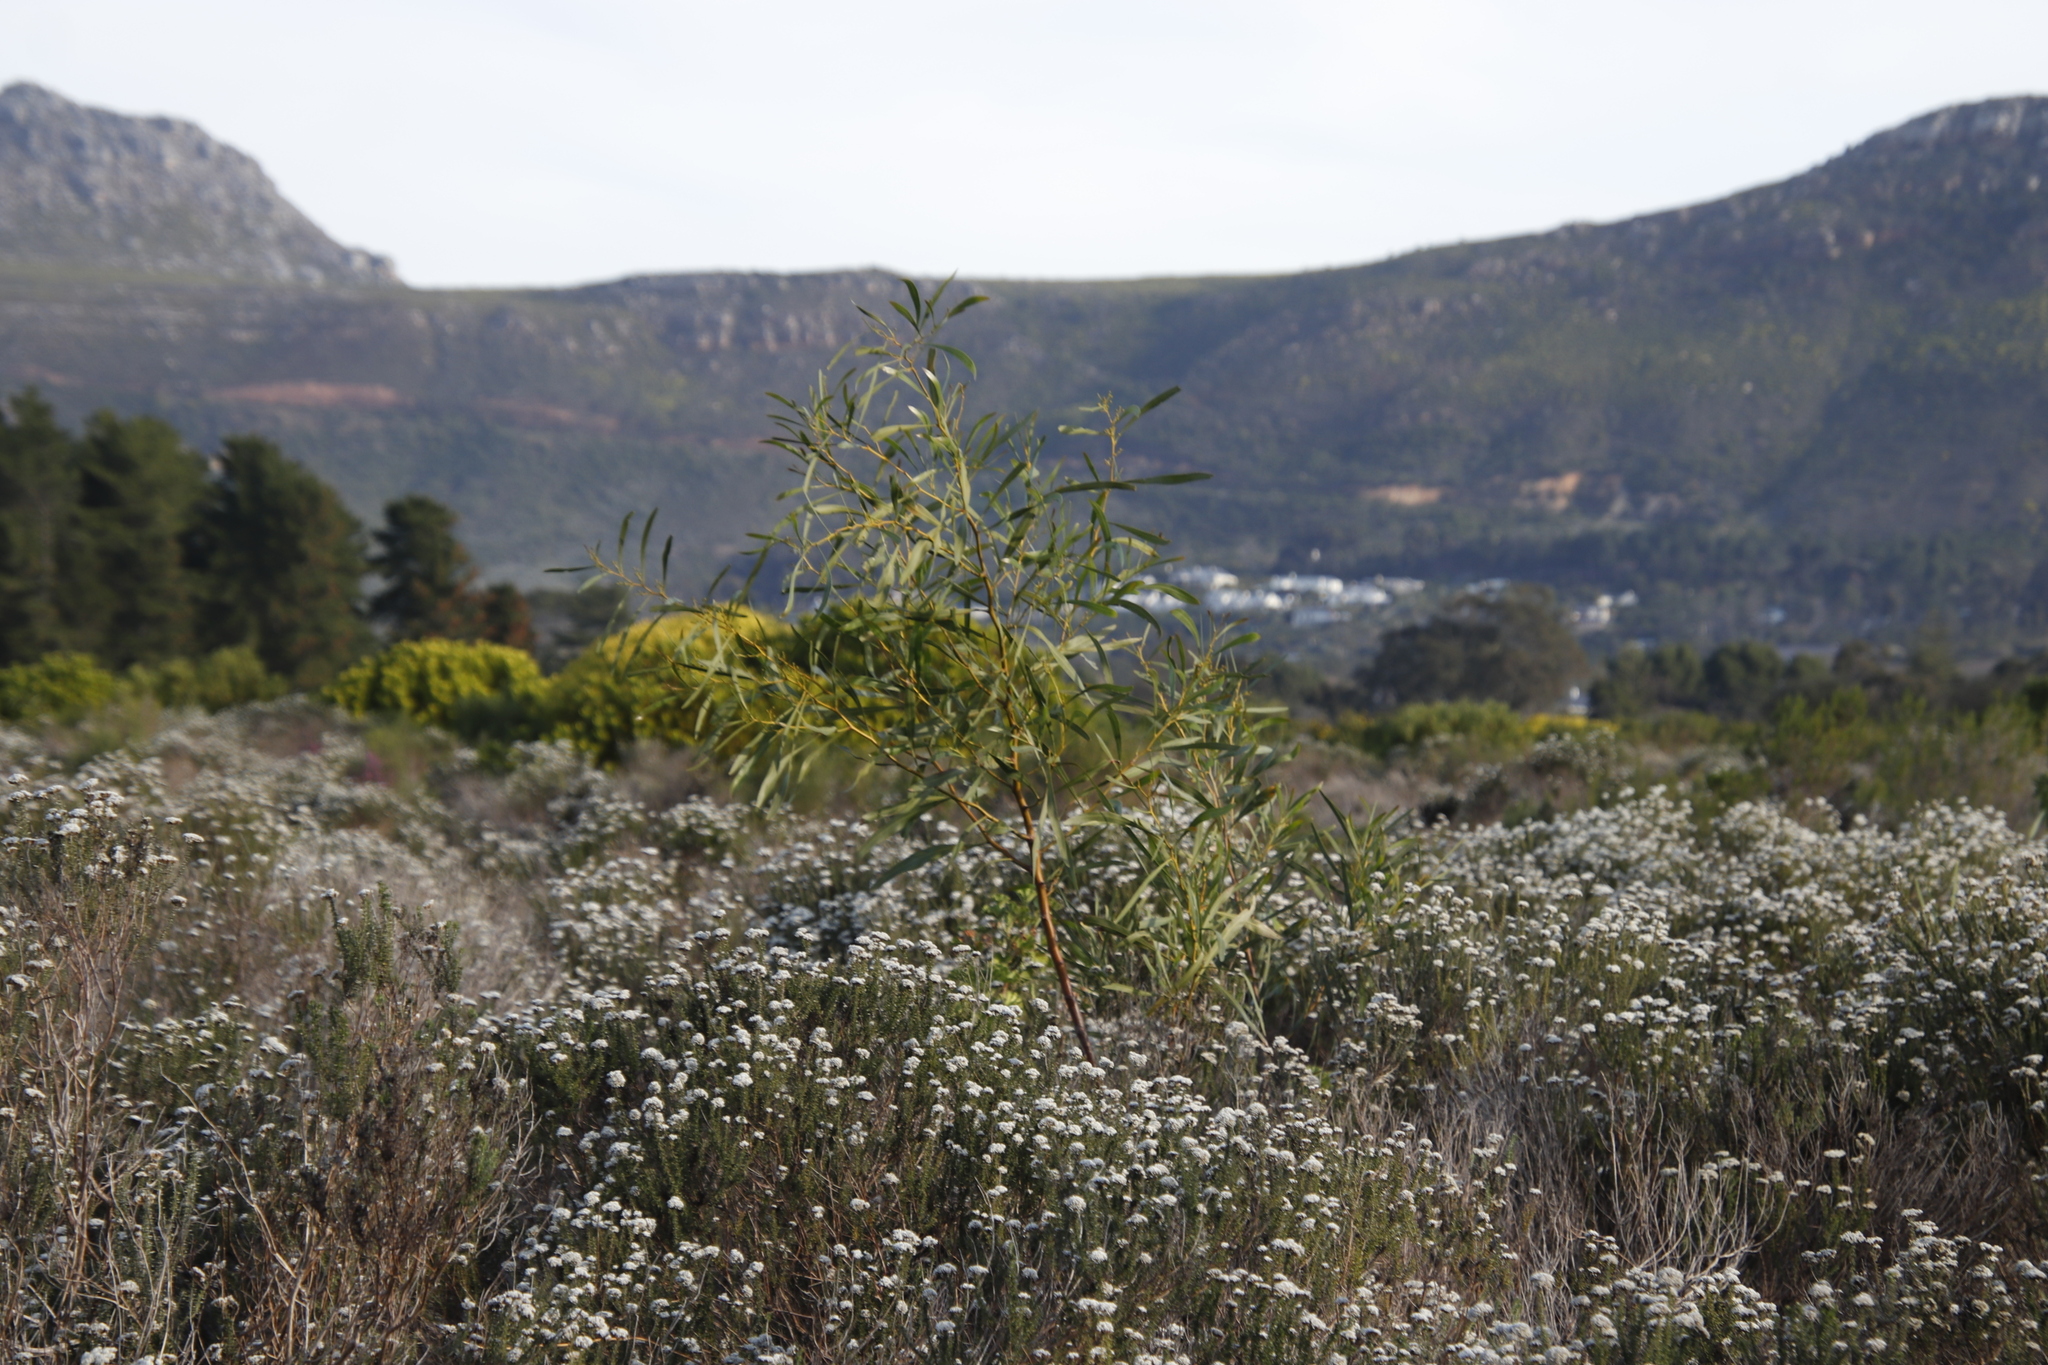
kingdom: Plantae
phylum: Tracheophyta
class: Magnoliopsida
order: Fabales
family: Fabaceae
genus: Acacia
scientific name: Acacia saligna
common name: Orange wattle
